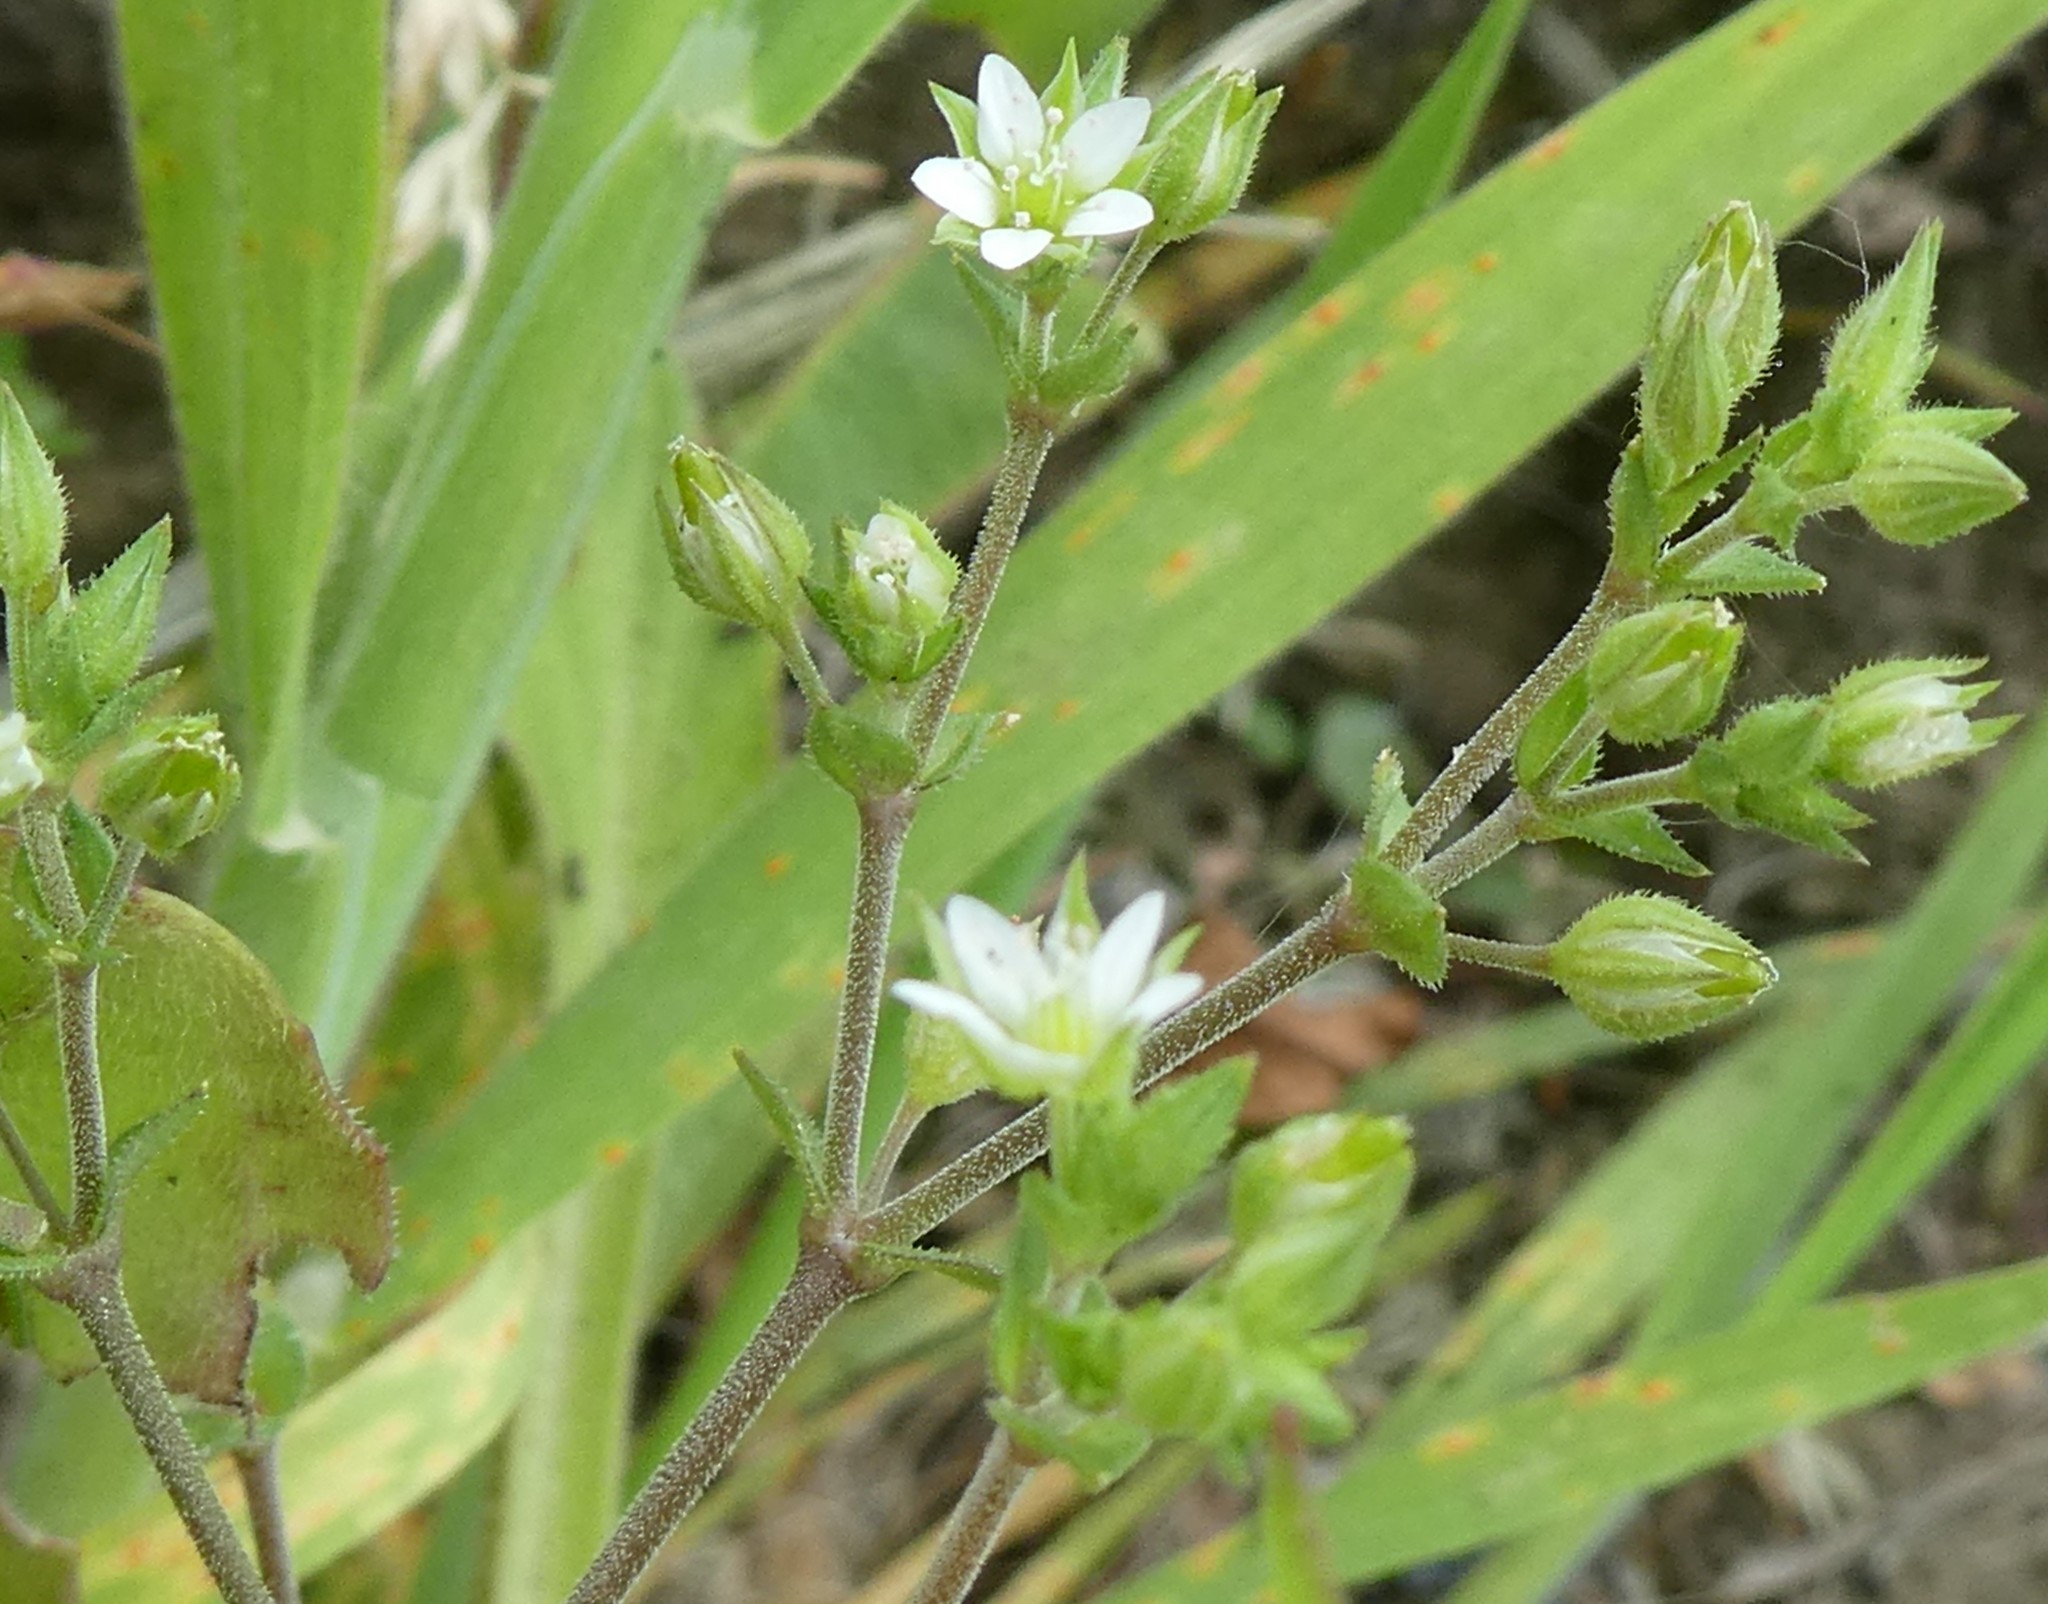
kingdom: Plantae
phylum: Tracheophyta
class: Magnoliopsida
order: Caryophyllales
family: Caryophyllaceae
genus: Arenaria
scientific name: Arenaria serpyllifolia
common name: Thyme-leaved sandwort
